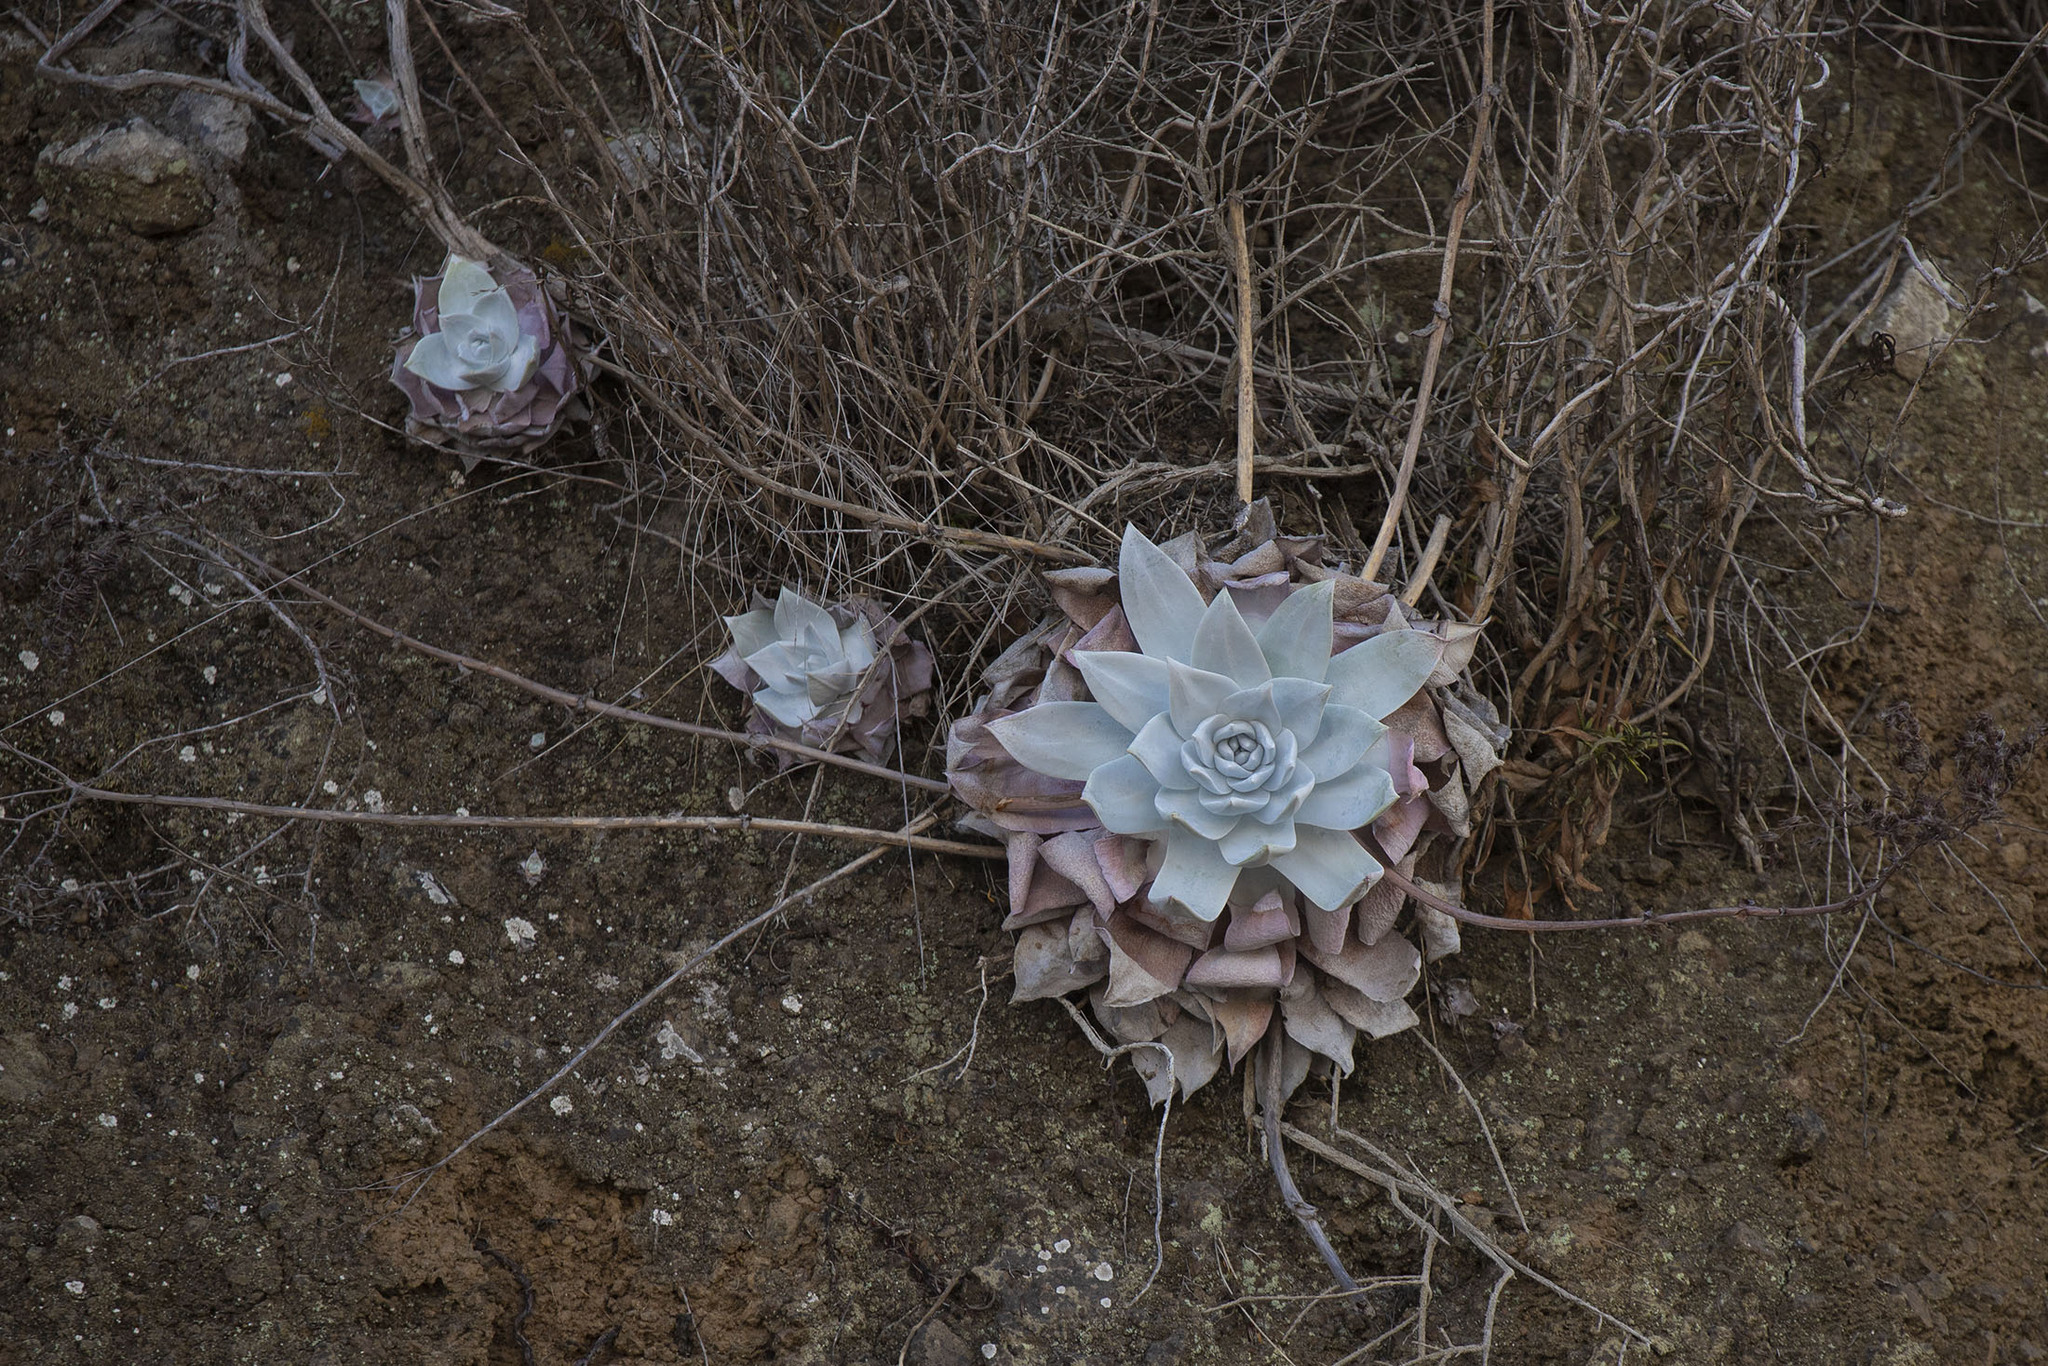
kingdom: Plantae
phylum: Tracheophyta
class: Magnoliopsida
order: Saxifragales
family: Crassulaceae
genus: Dudleya
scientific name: Dudleya brittonii
